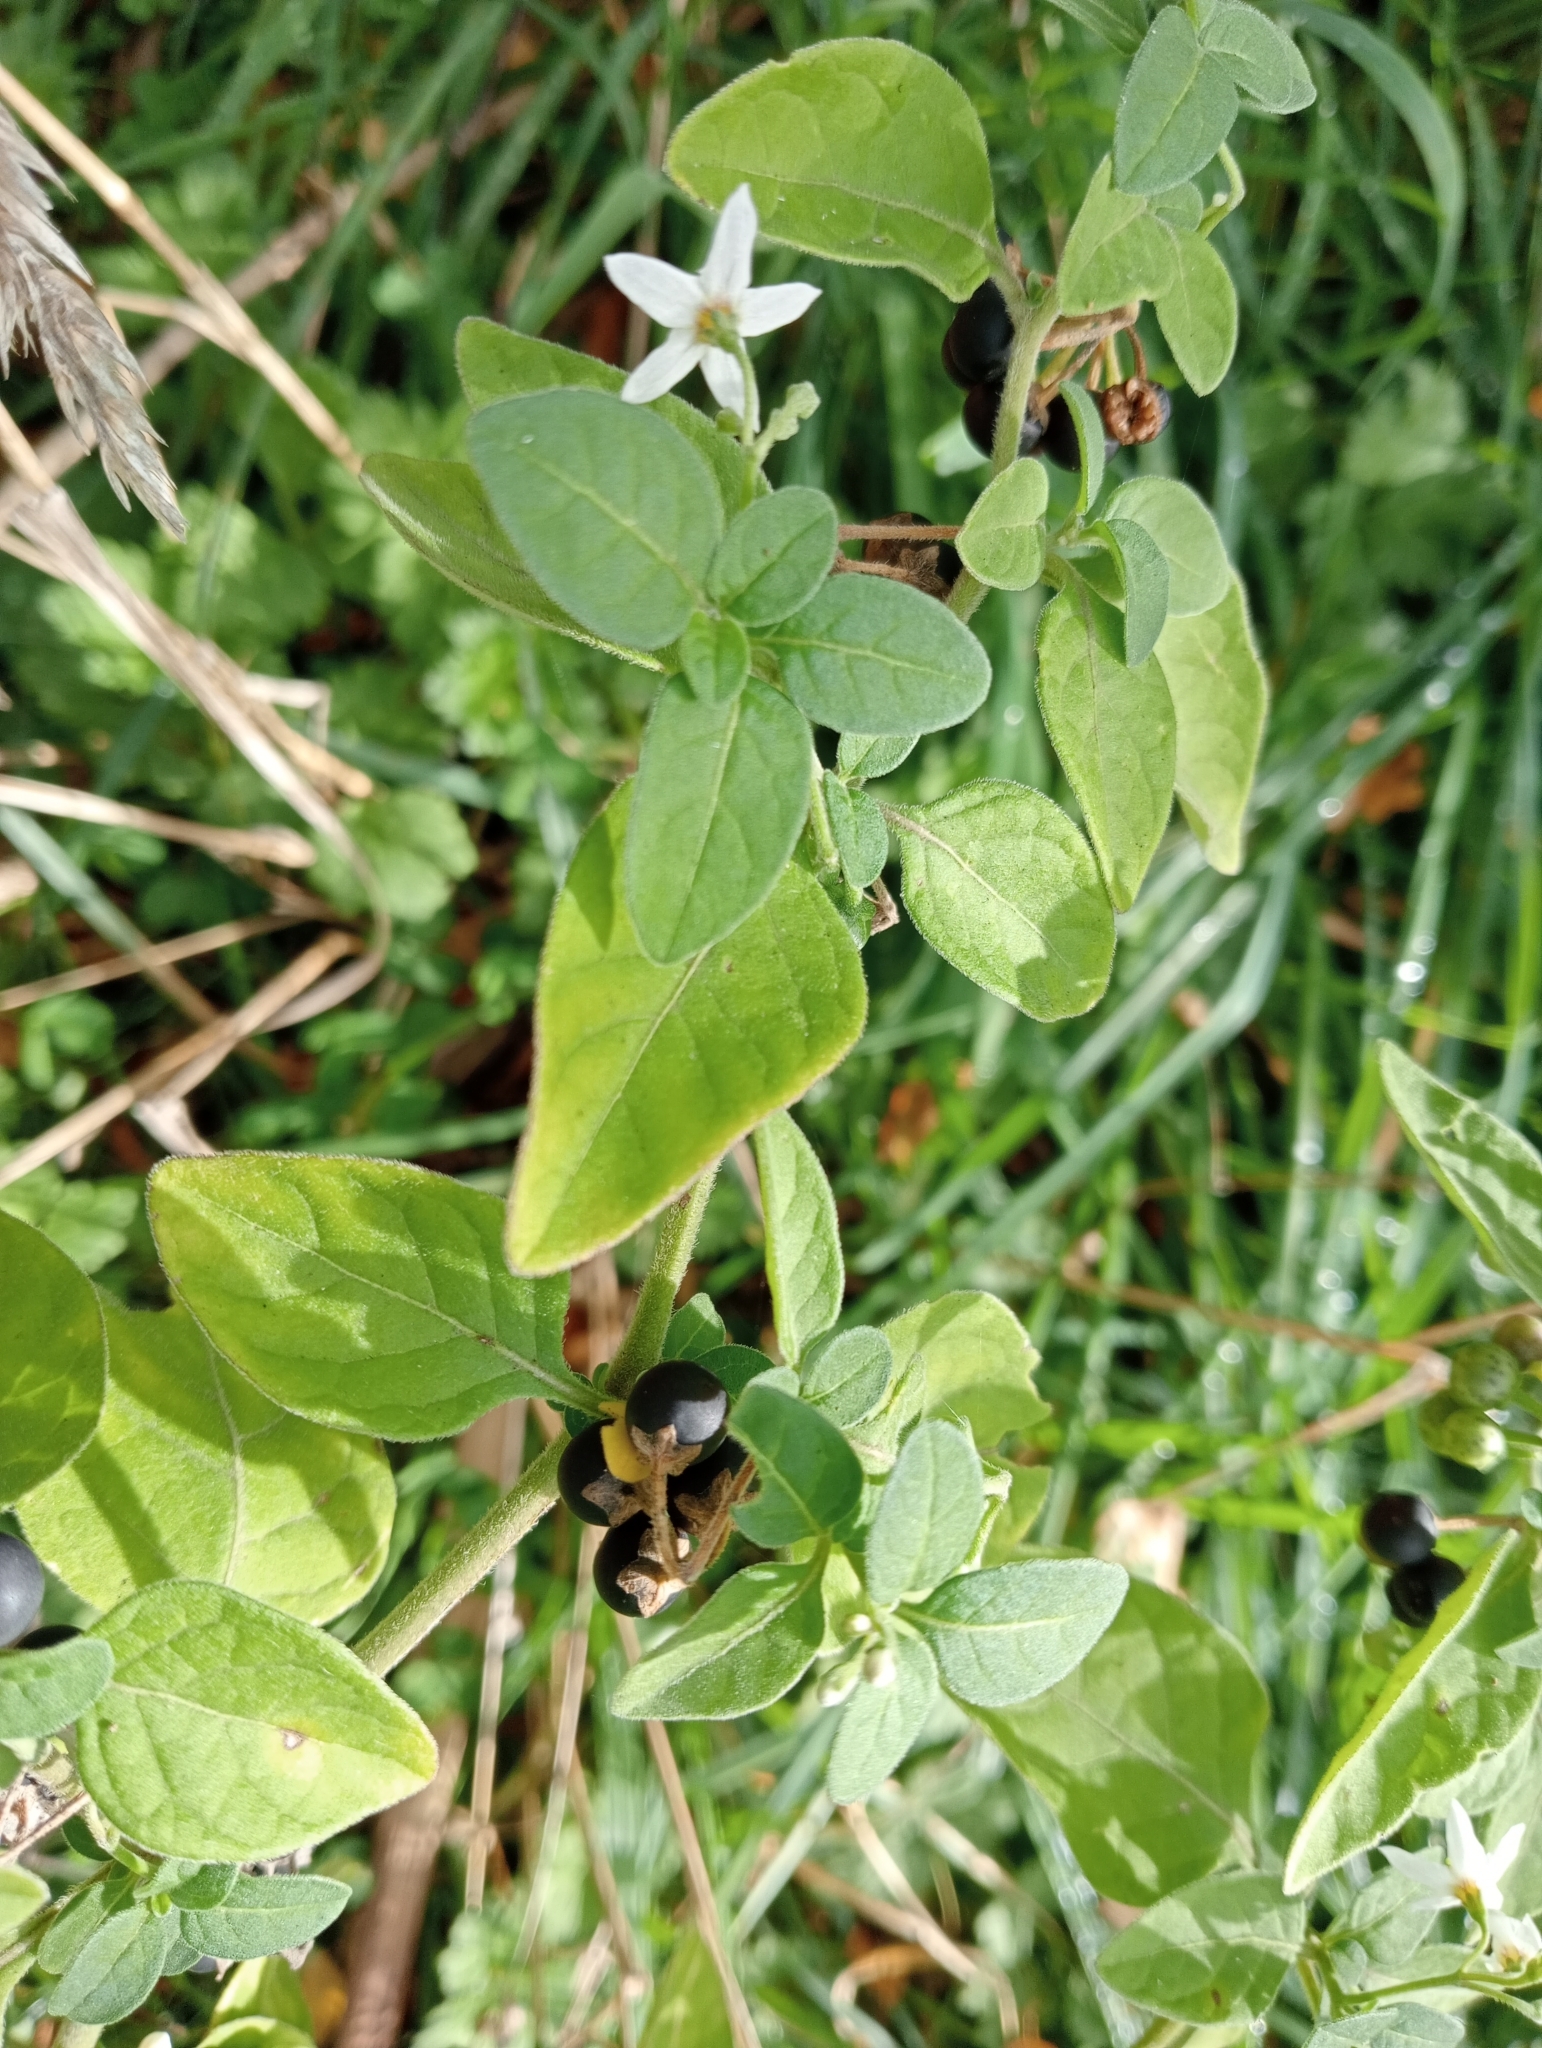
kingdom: Plantae
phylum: Tracheophyta
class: Magnoliopsida
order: Solanales
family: Solanaceae
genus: Solanum
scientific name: Solanum chenopodioides
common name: Tall nightshade
